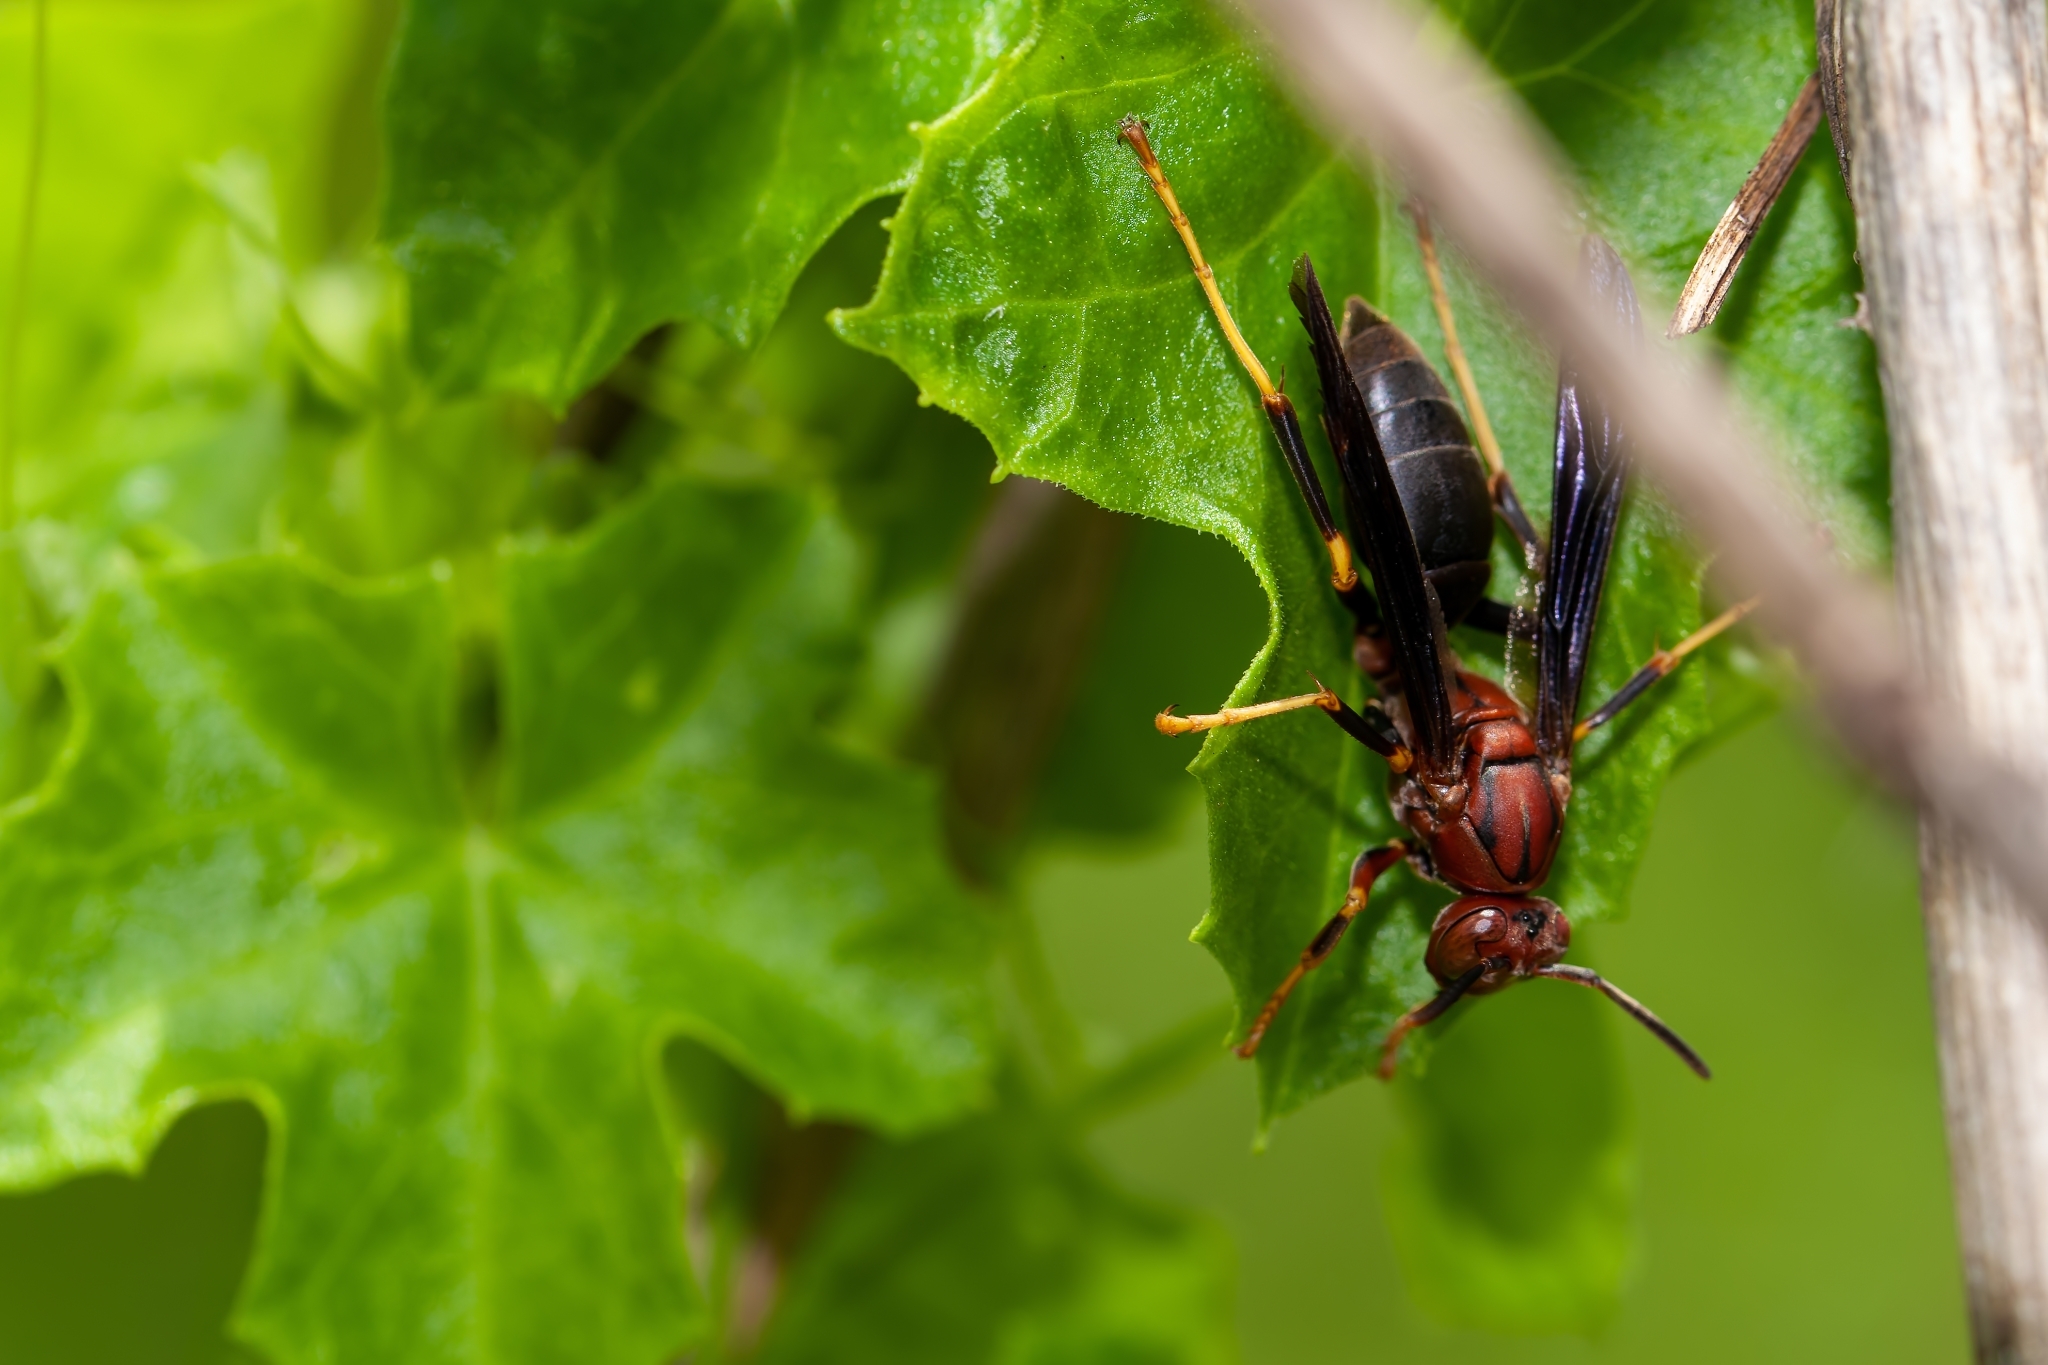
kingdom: Animalia
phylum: Arthropoda
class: Insecta
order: Hymenoptera
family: Eumenidae
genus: Polistes
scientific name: Polistes metricus
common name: Metric paper wasp
